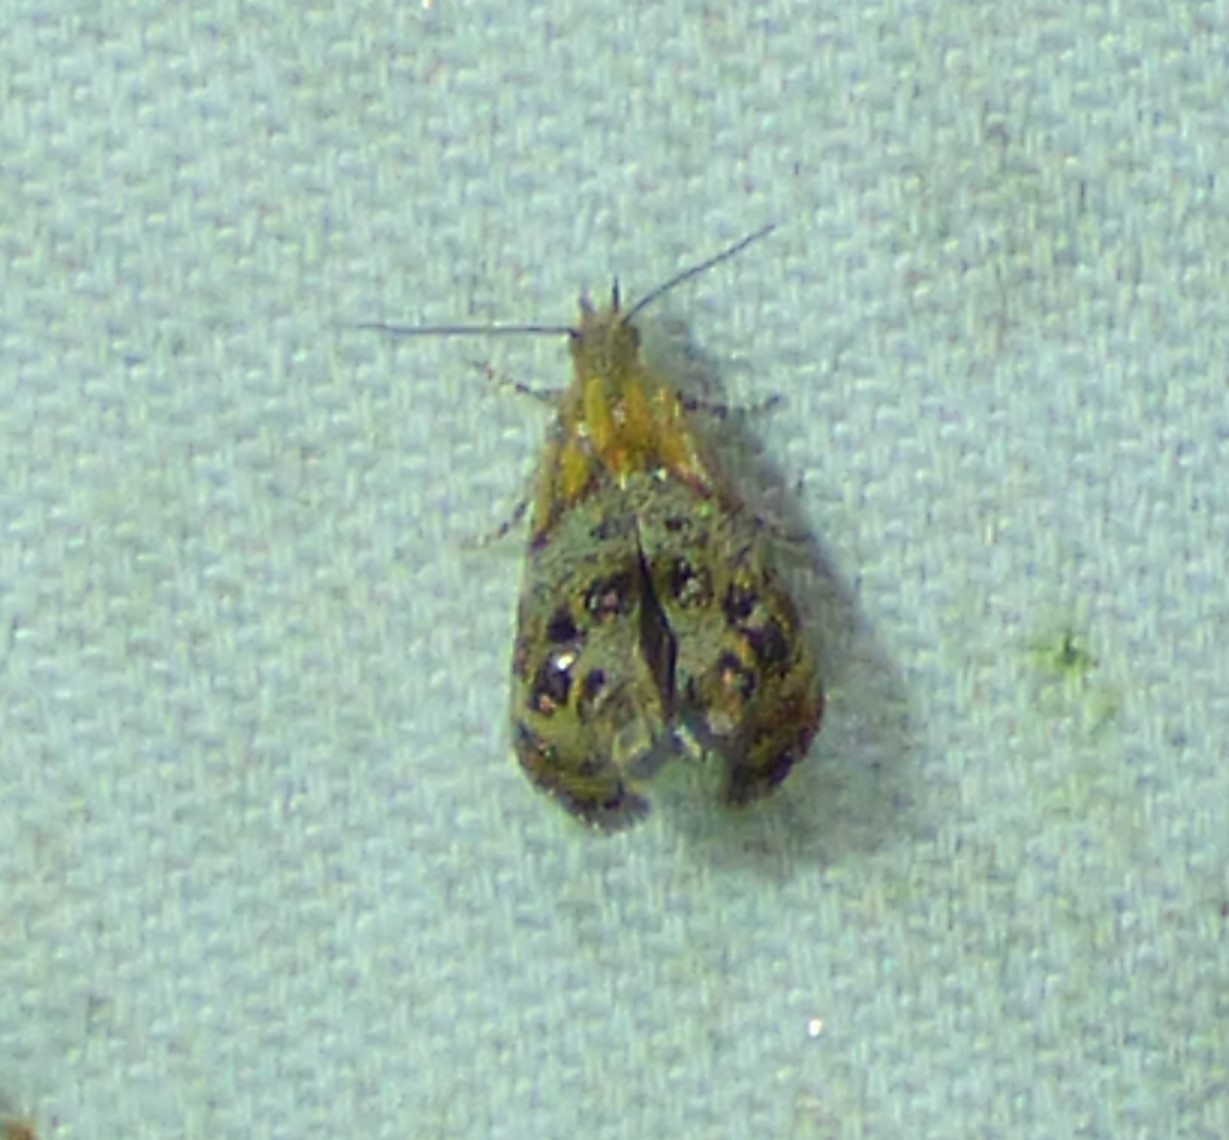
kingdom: Animalia
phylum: Arthropoda
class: Insecta
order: Lepidoptera
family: Choreutidae
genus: Tebenna
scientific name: Tebenna gnaphaliella
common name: Everlasting tebenna moth
